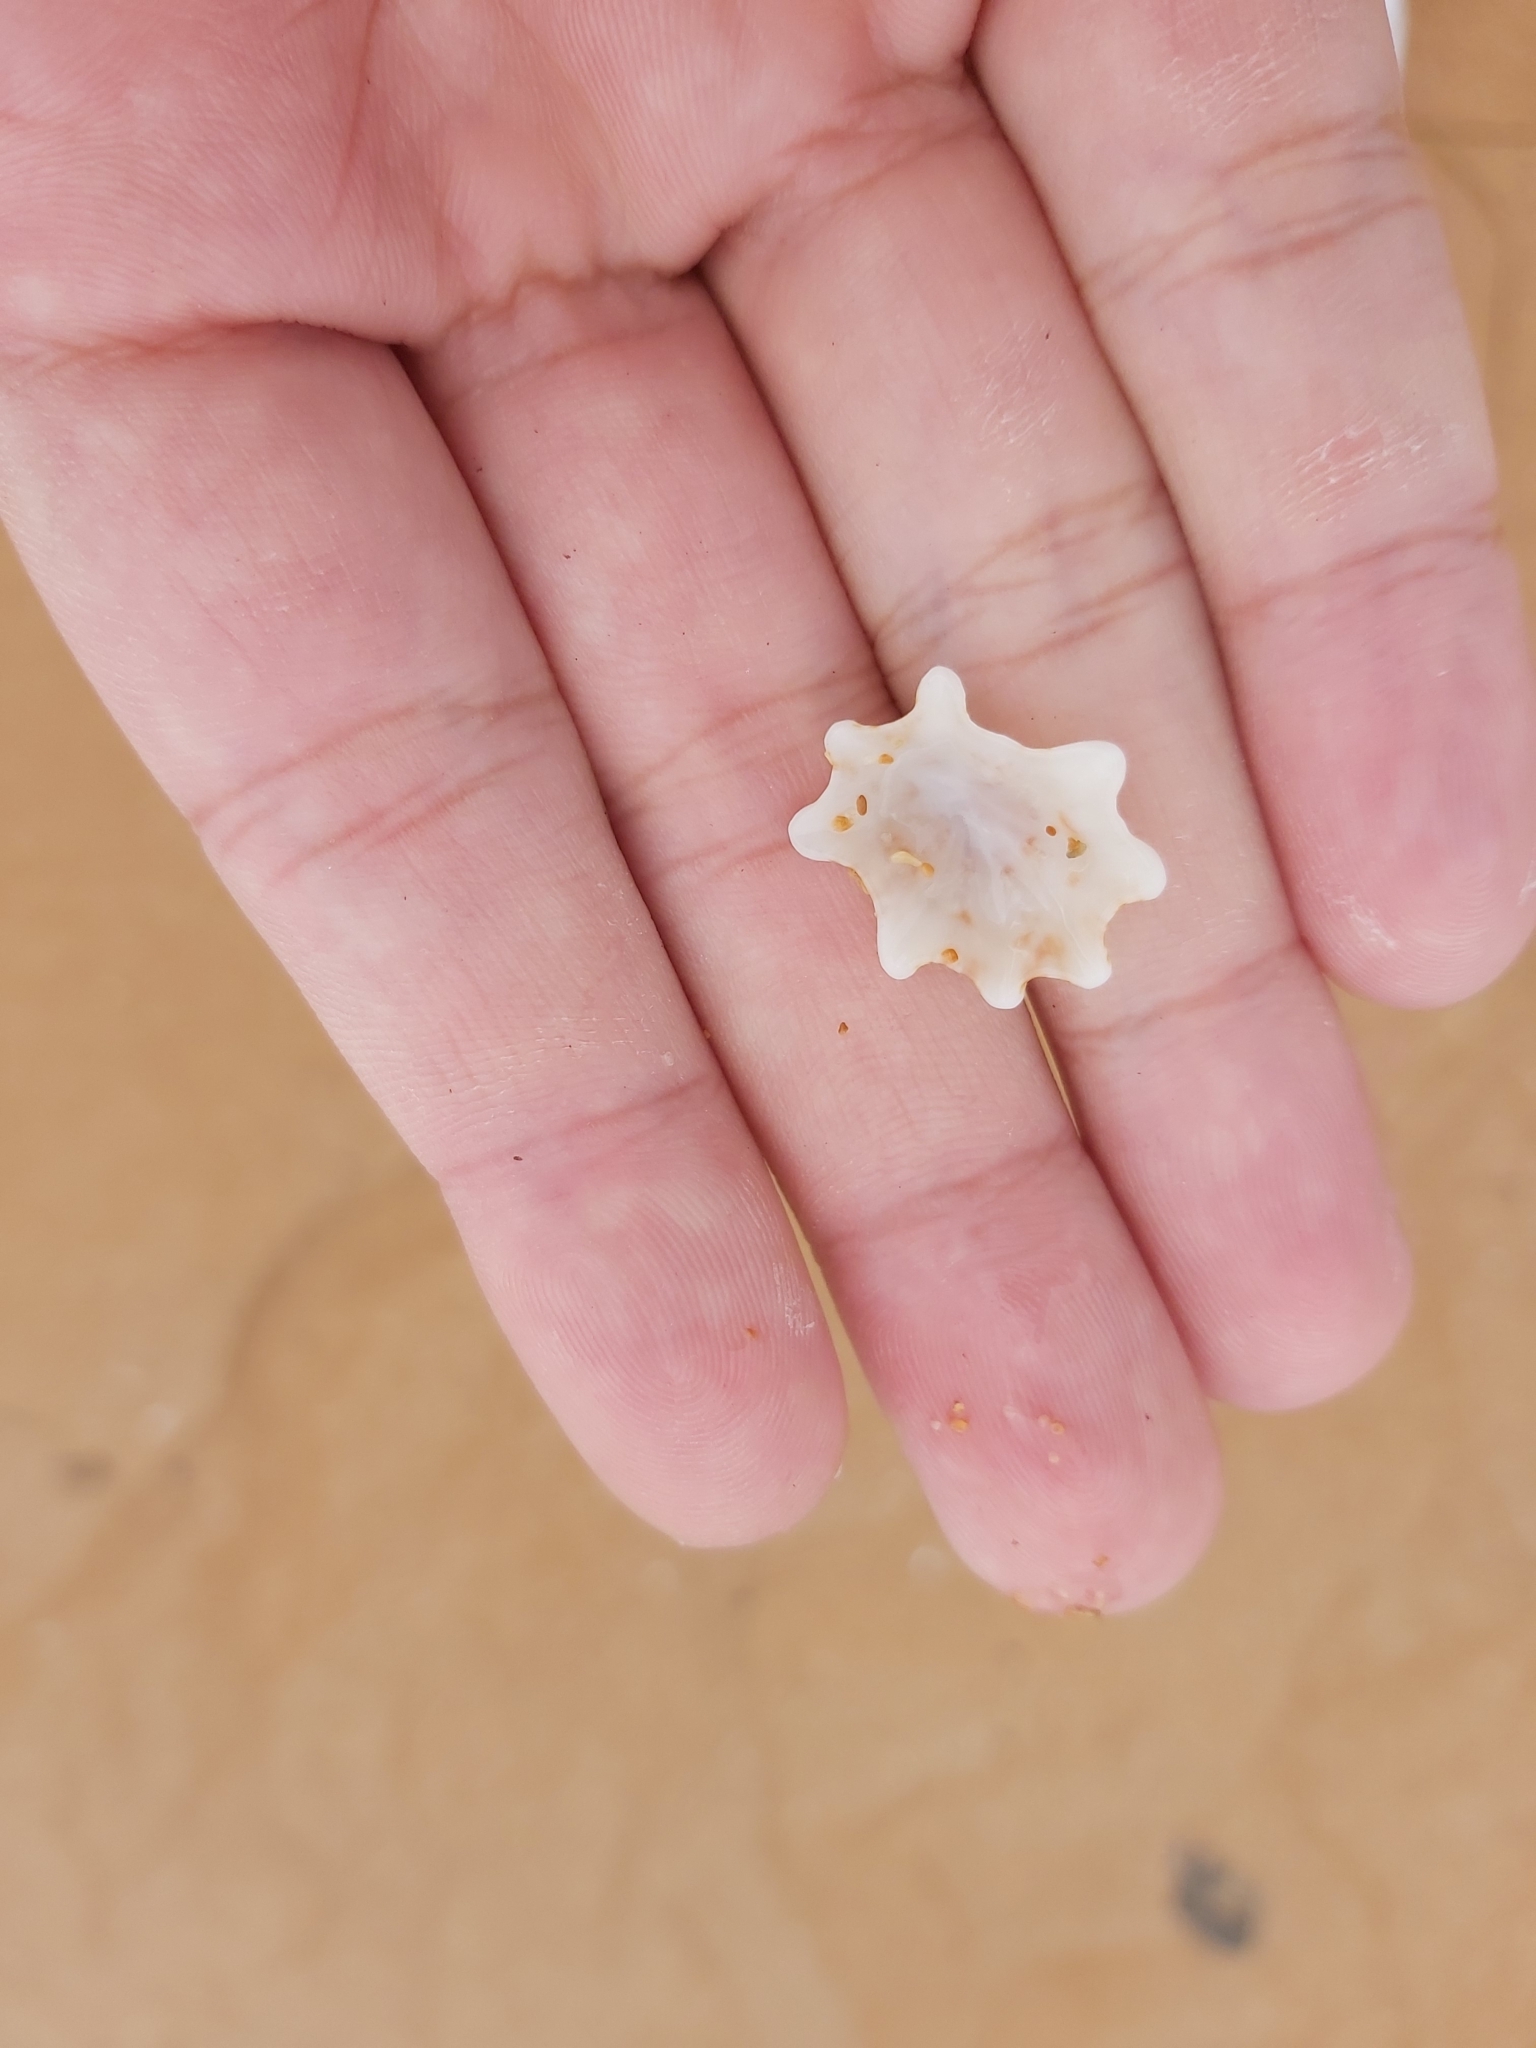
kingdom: Animalia
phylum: Mollusca
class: Gastropoda
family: Patellidae
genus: Scutellastra
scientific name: Scutellastra chapmani
